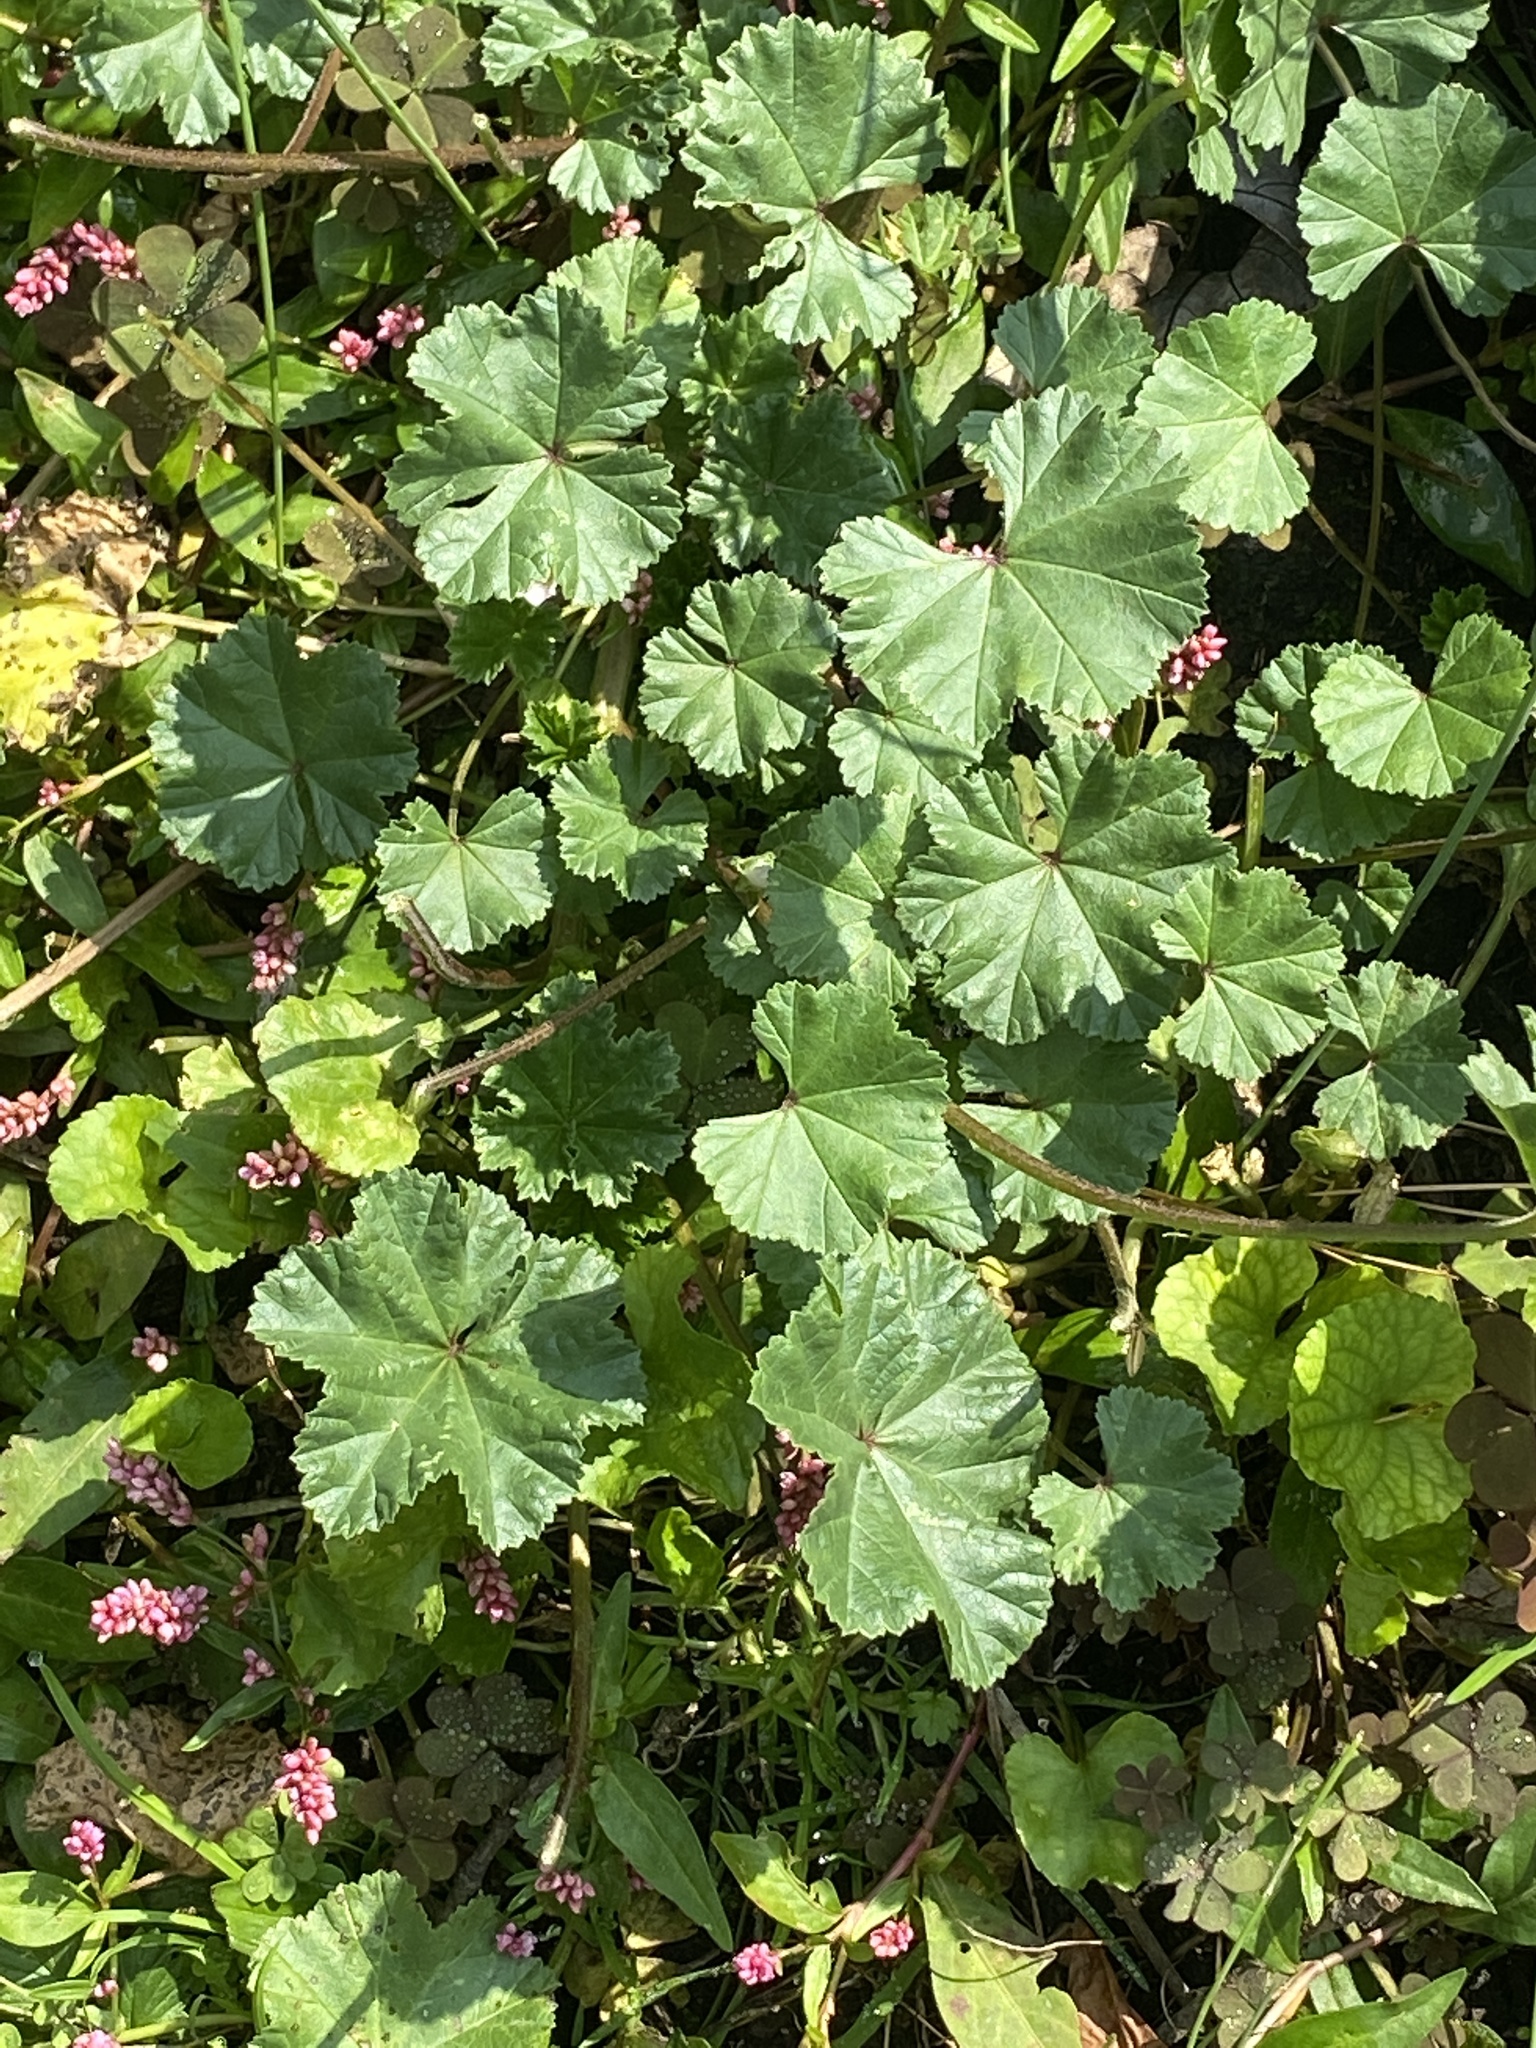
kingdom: Plantae
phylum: Tracheophyta
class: Magnoliopsida
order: Malvales
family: Malvaceae
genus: Malva
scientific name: Malva neglecta
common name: Common mallow
